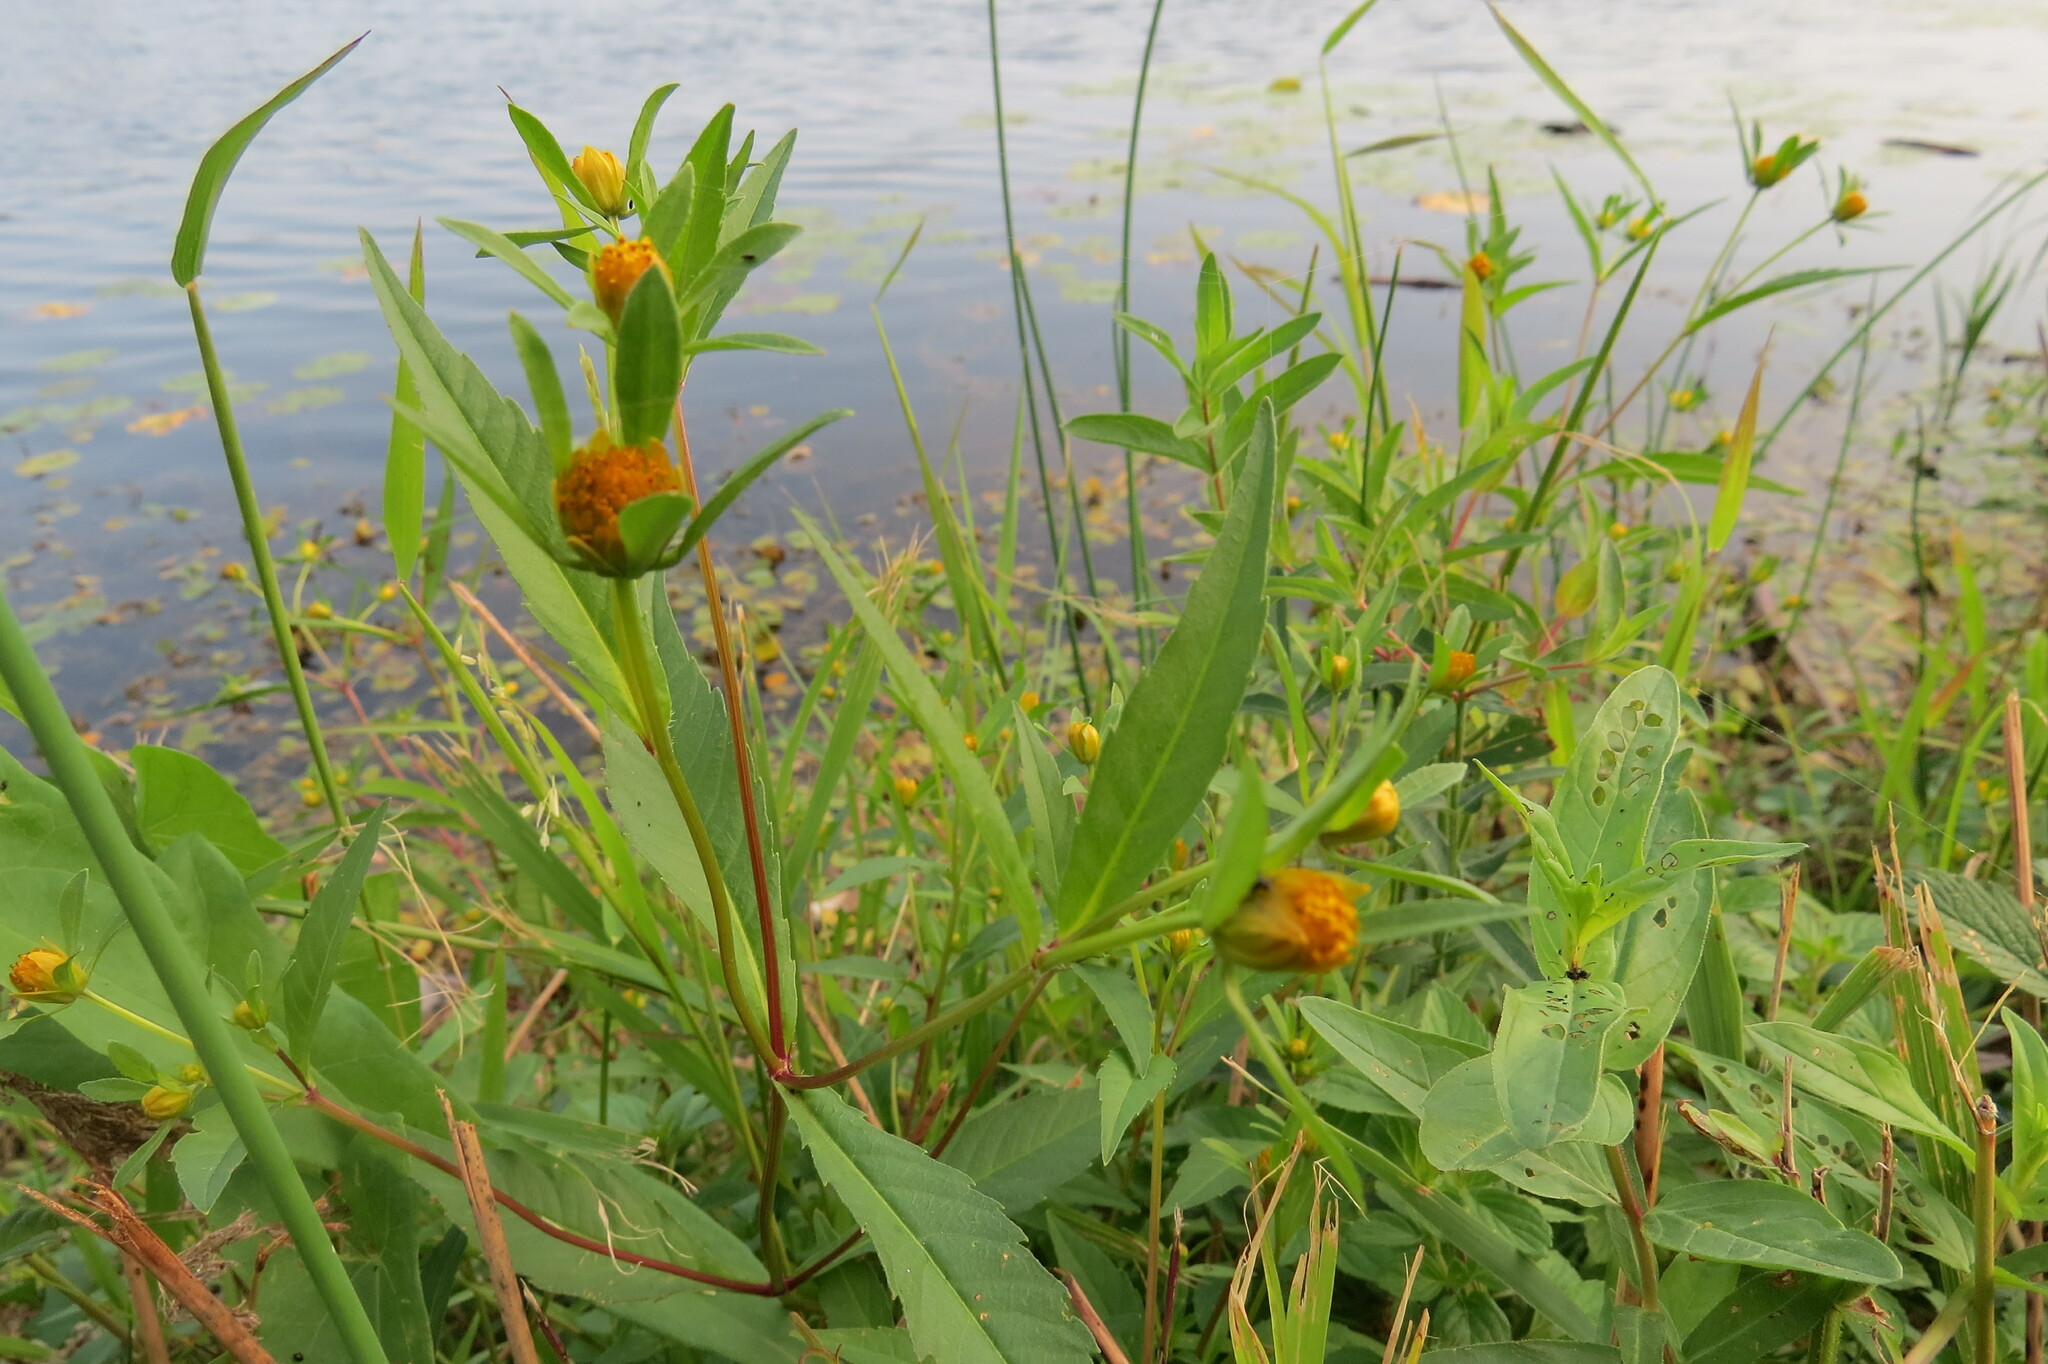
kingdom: Plantae
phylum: Tracheophyta
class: Magnoliopsida
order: Asterales
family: Asteraceae
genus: Bidens
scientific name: Bidens connata
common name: London bur-marigold
